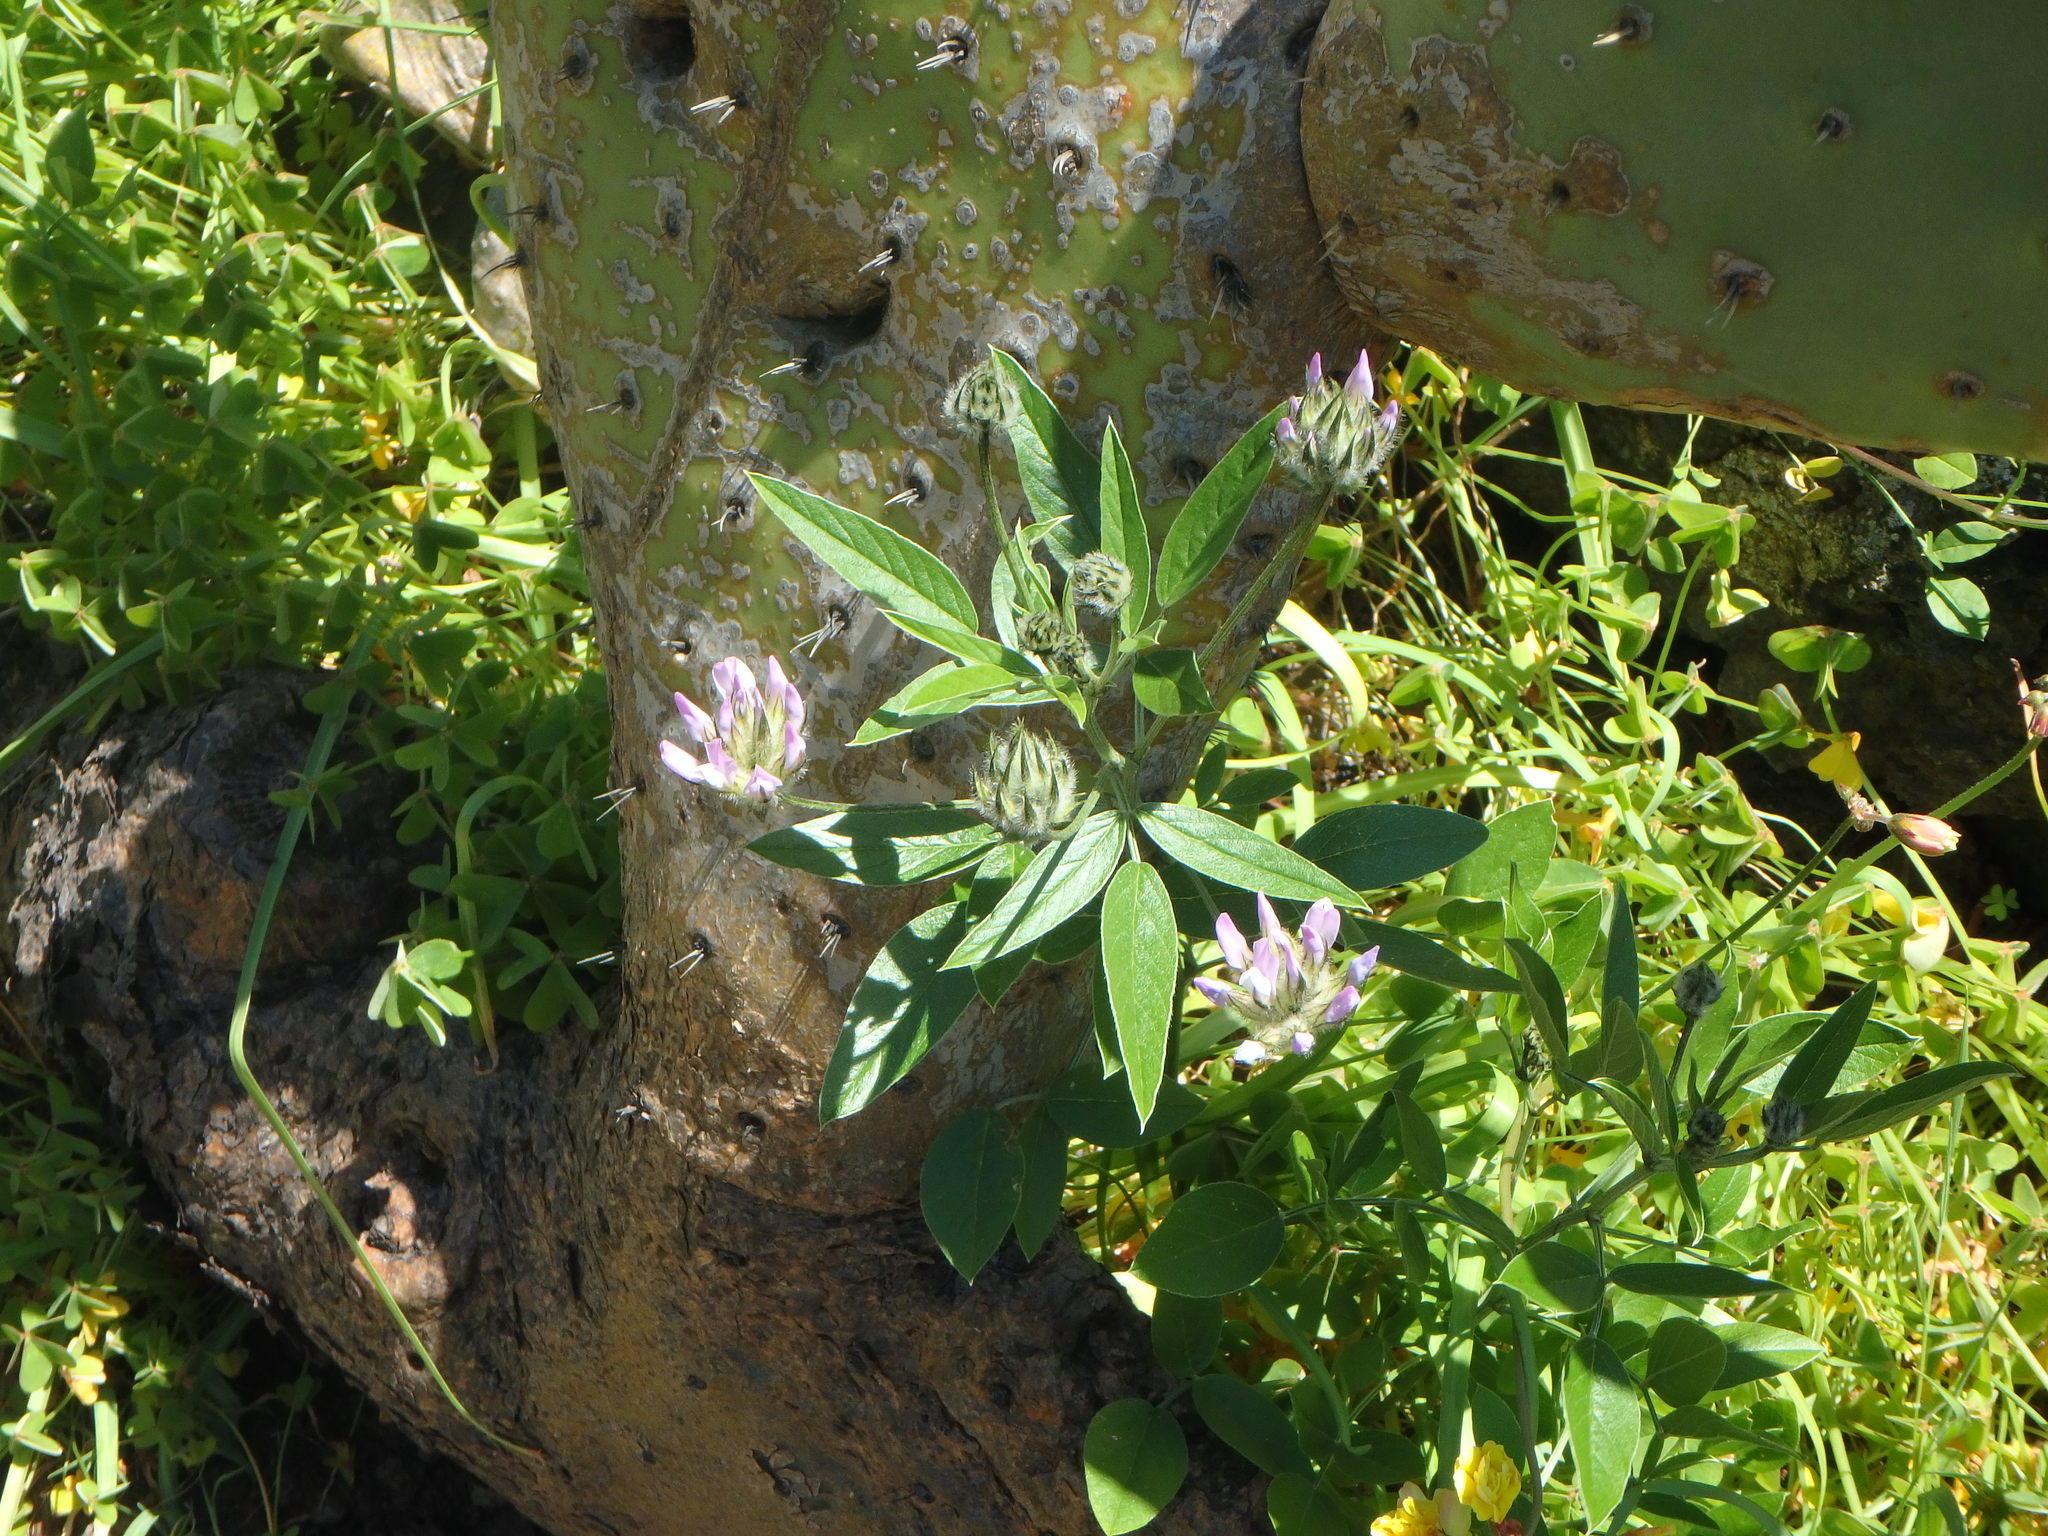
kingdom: Plantae
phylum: Tracheophyta
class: Magnoliopsida
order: Fabales
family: Fabaceae
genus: Bituminaria
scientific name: Bituminaria bituminosa
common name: Arabian pea
